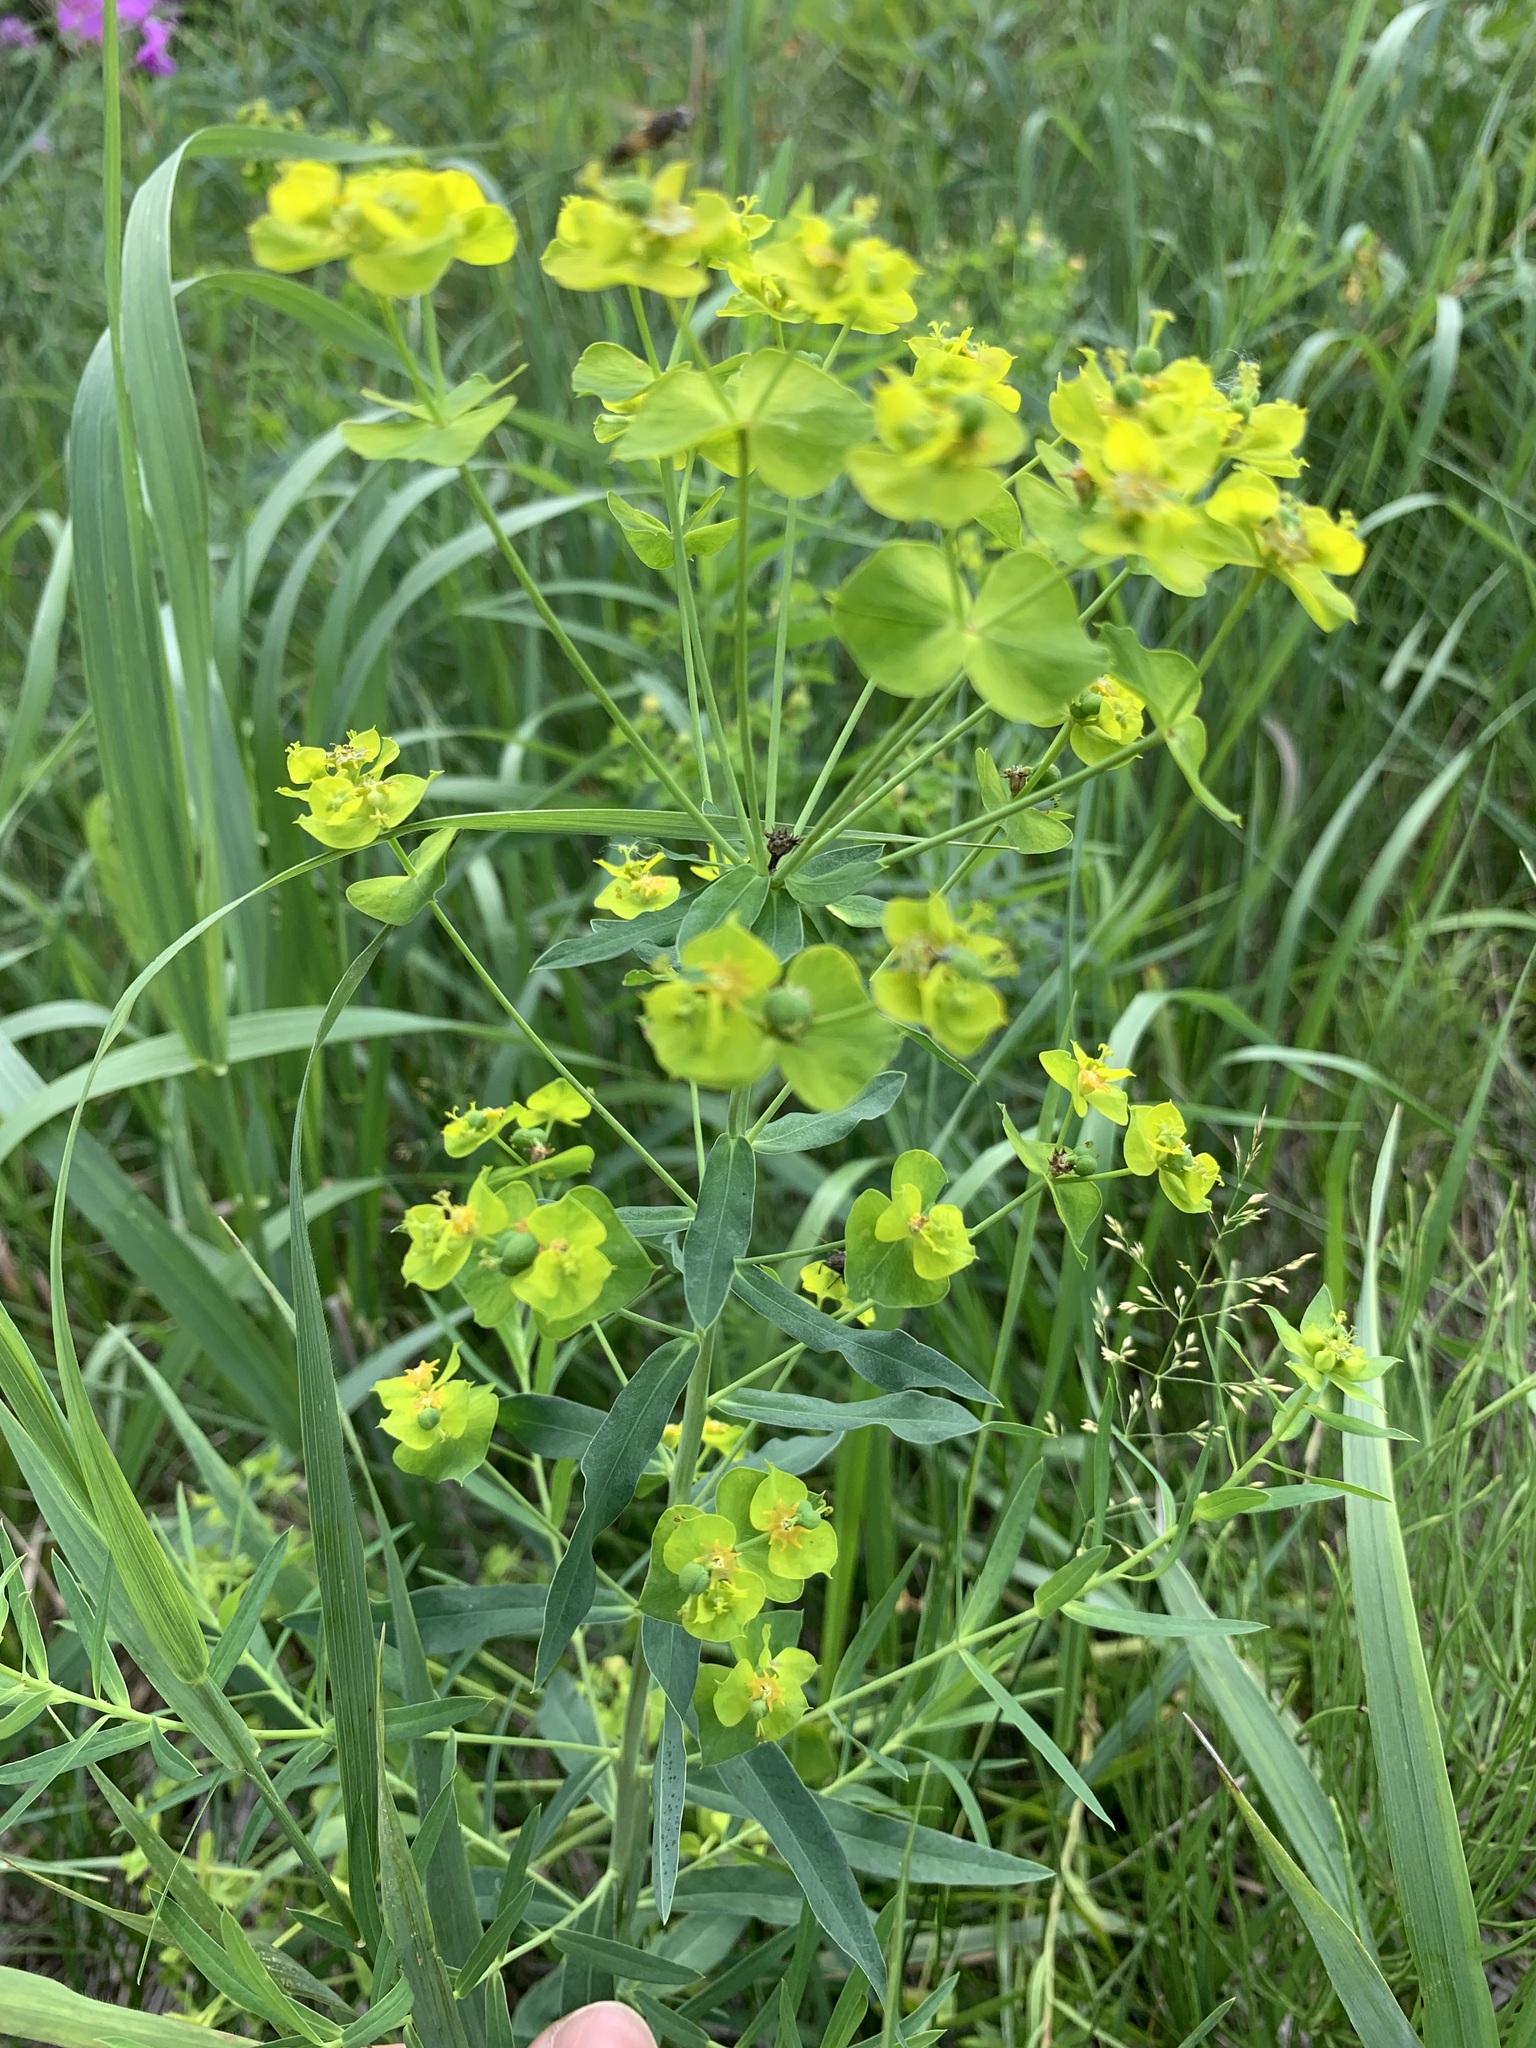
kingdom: Plantae
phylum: Tracheophyta
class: Magnoliopsida
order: Malpighiales
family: Euphorbiaceae
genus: Euphorbia
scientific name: Euphorbia virgata
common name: Leafy spurge
